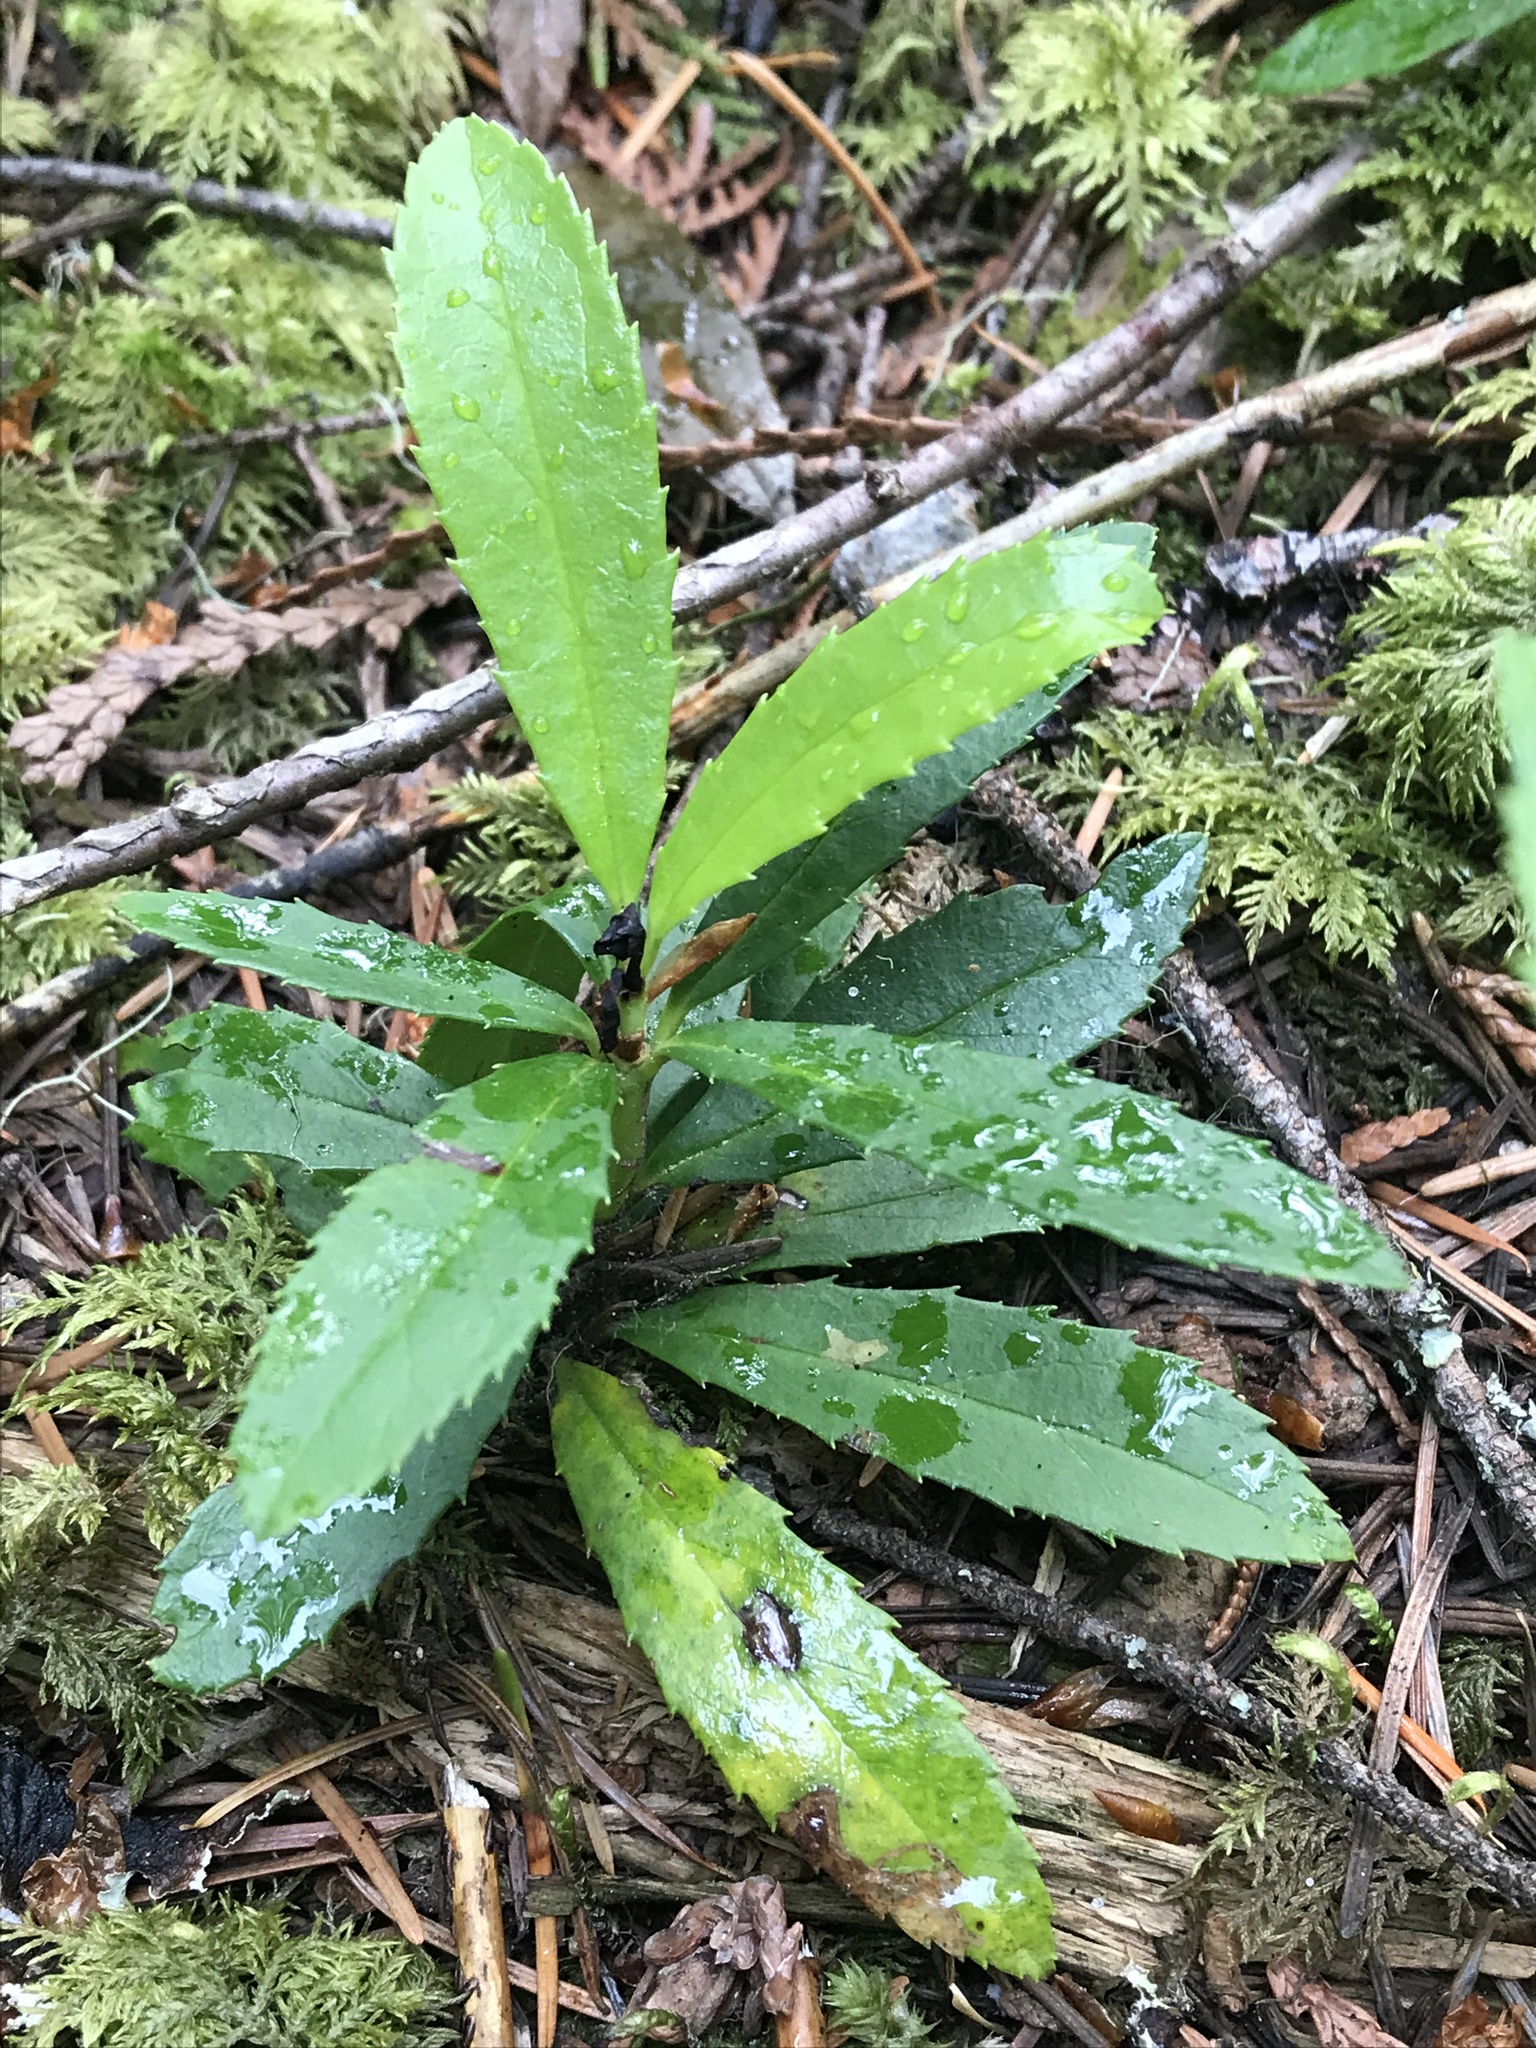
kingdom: Plantae
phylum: Tracheophyta
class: Magnoliopsida
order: Ericales
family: Ericaceae
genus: Chimaphila
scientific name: Chimaphila umbellata
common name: Pipsissewa
